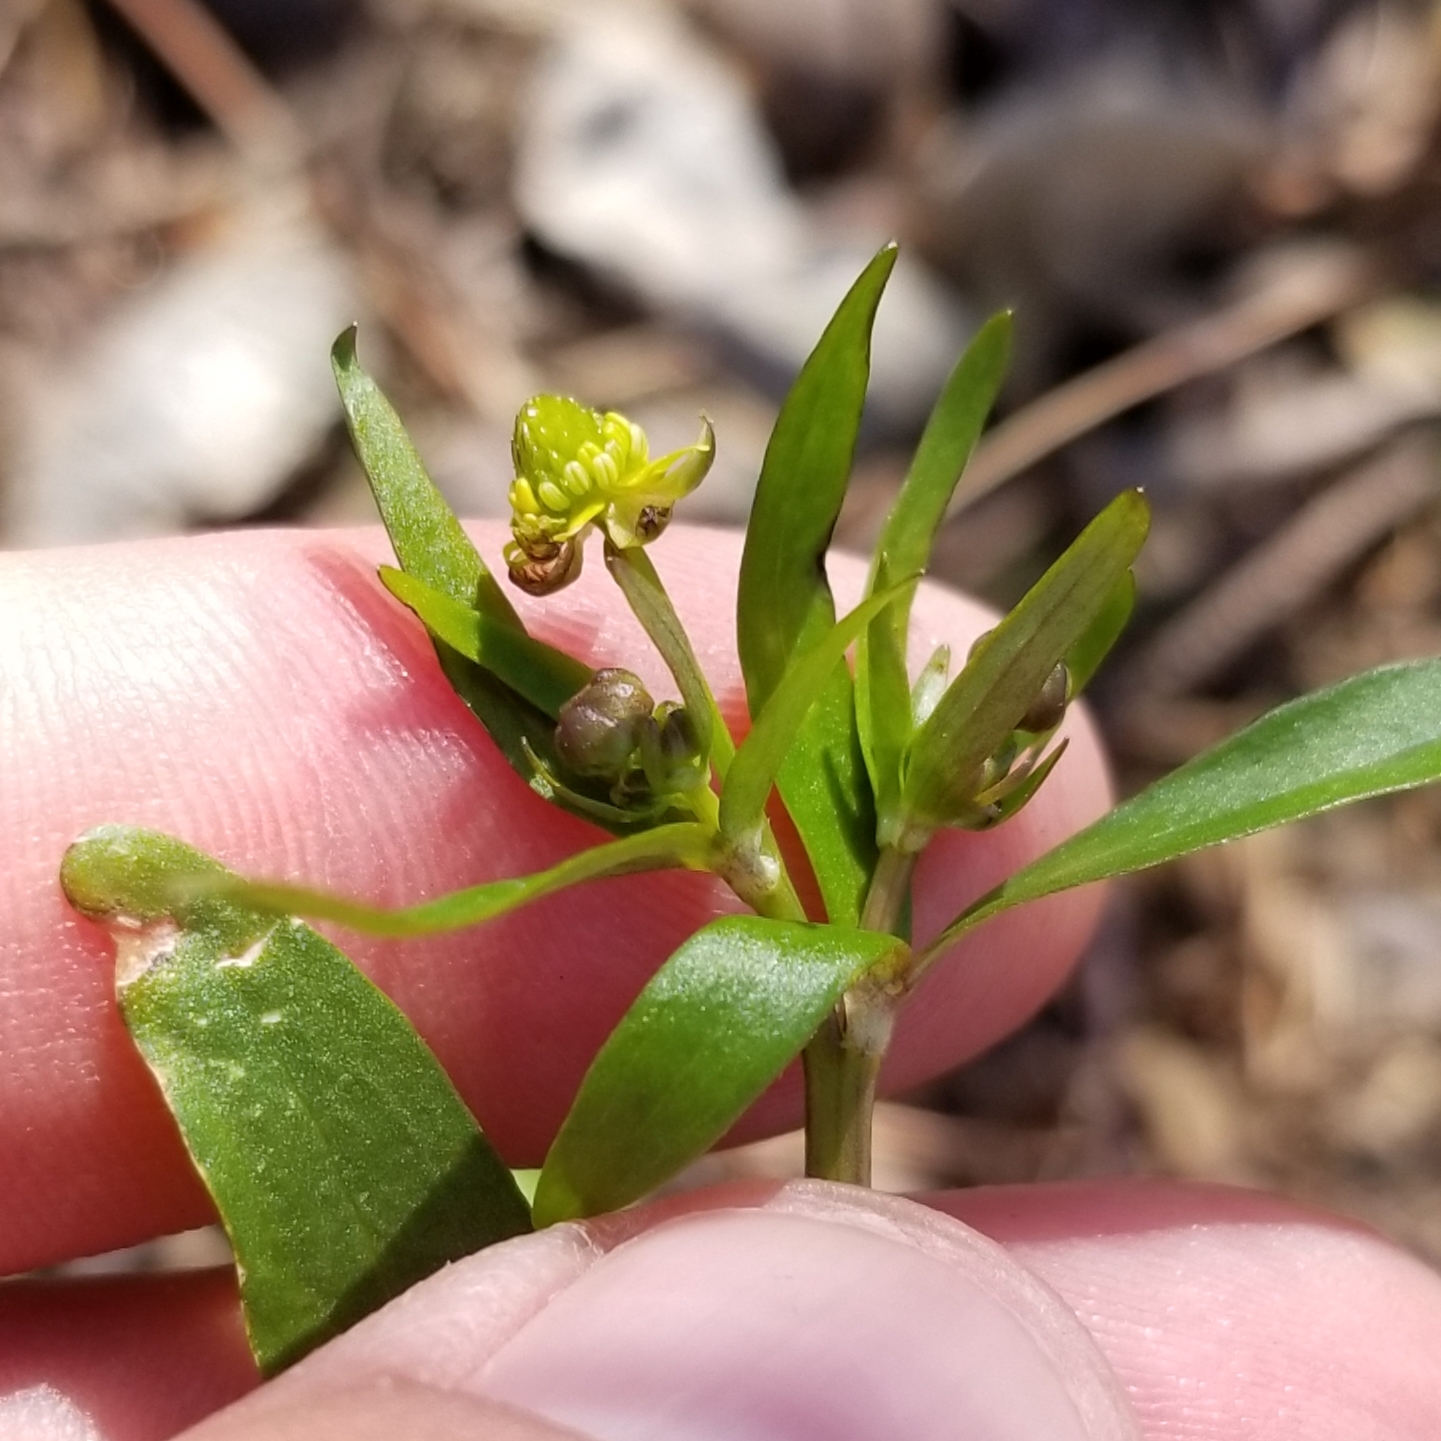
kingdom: Plantae
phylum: Tracheophyta
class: Magnoliopsida
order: Ranunculales
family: Ranunculaceae
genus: Ranunculus
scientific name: Ranunculus abortivus
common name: Early wood buttercup
